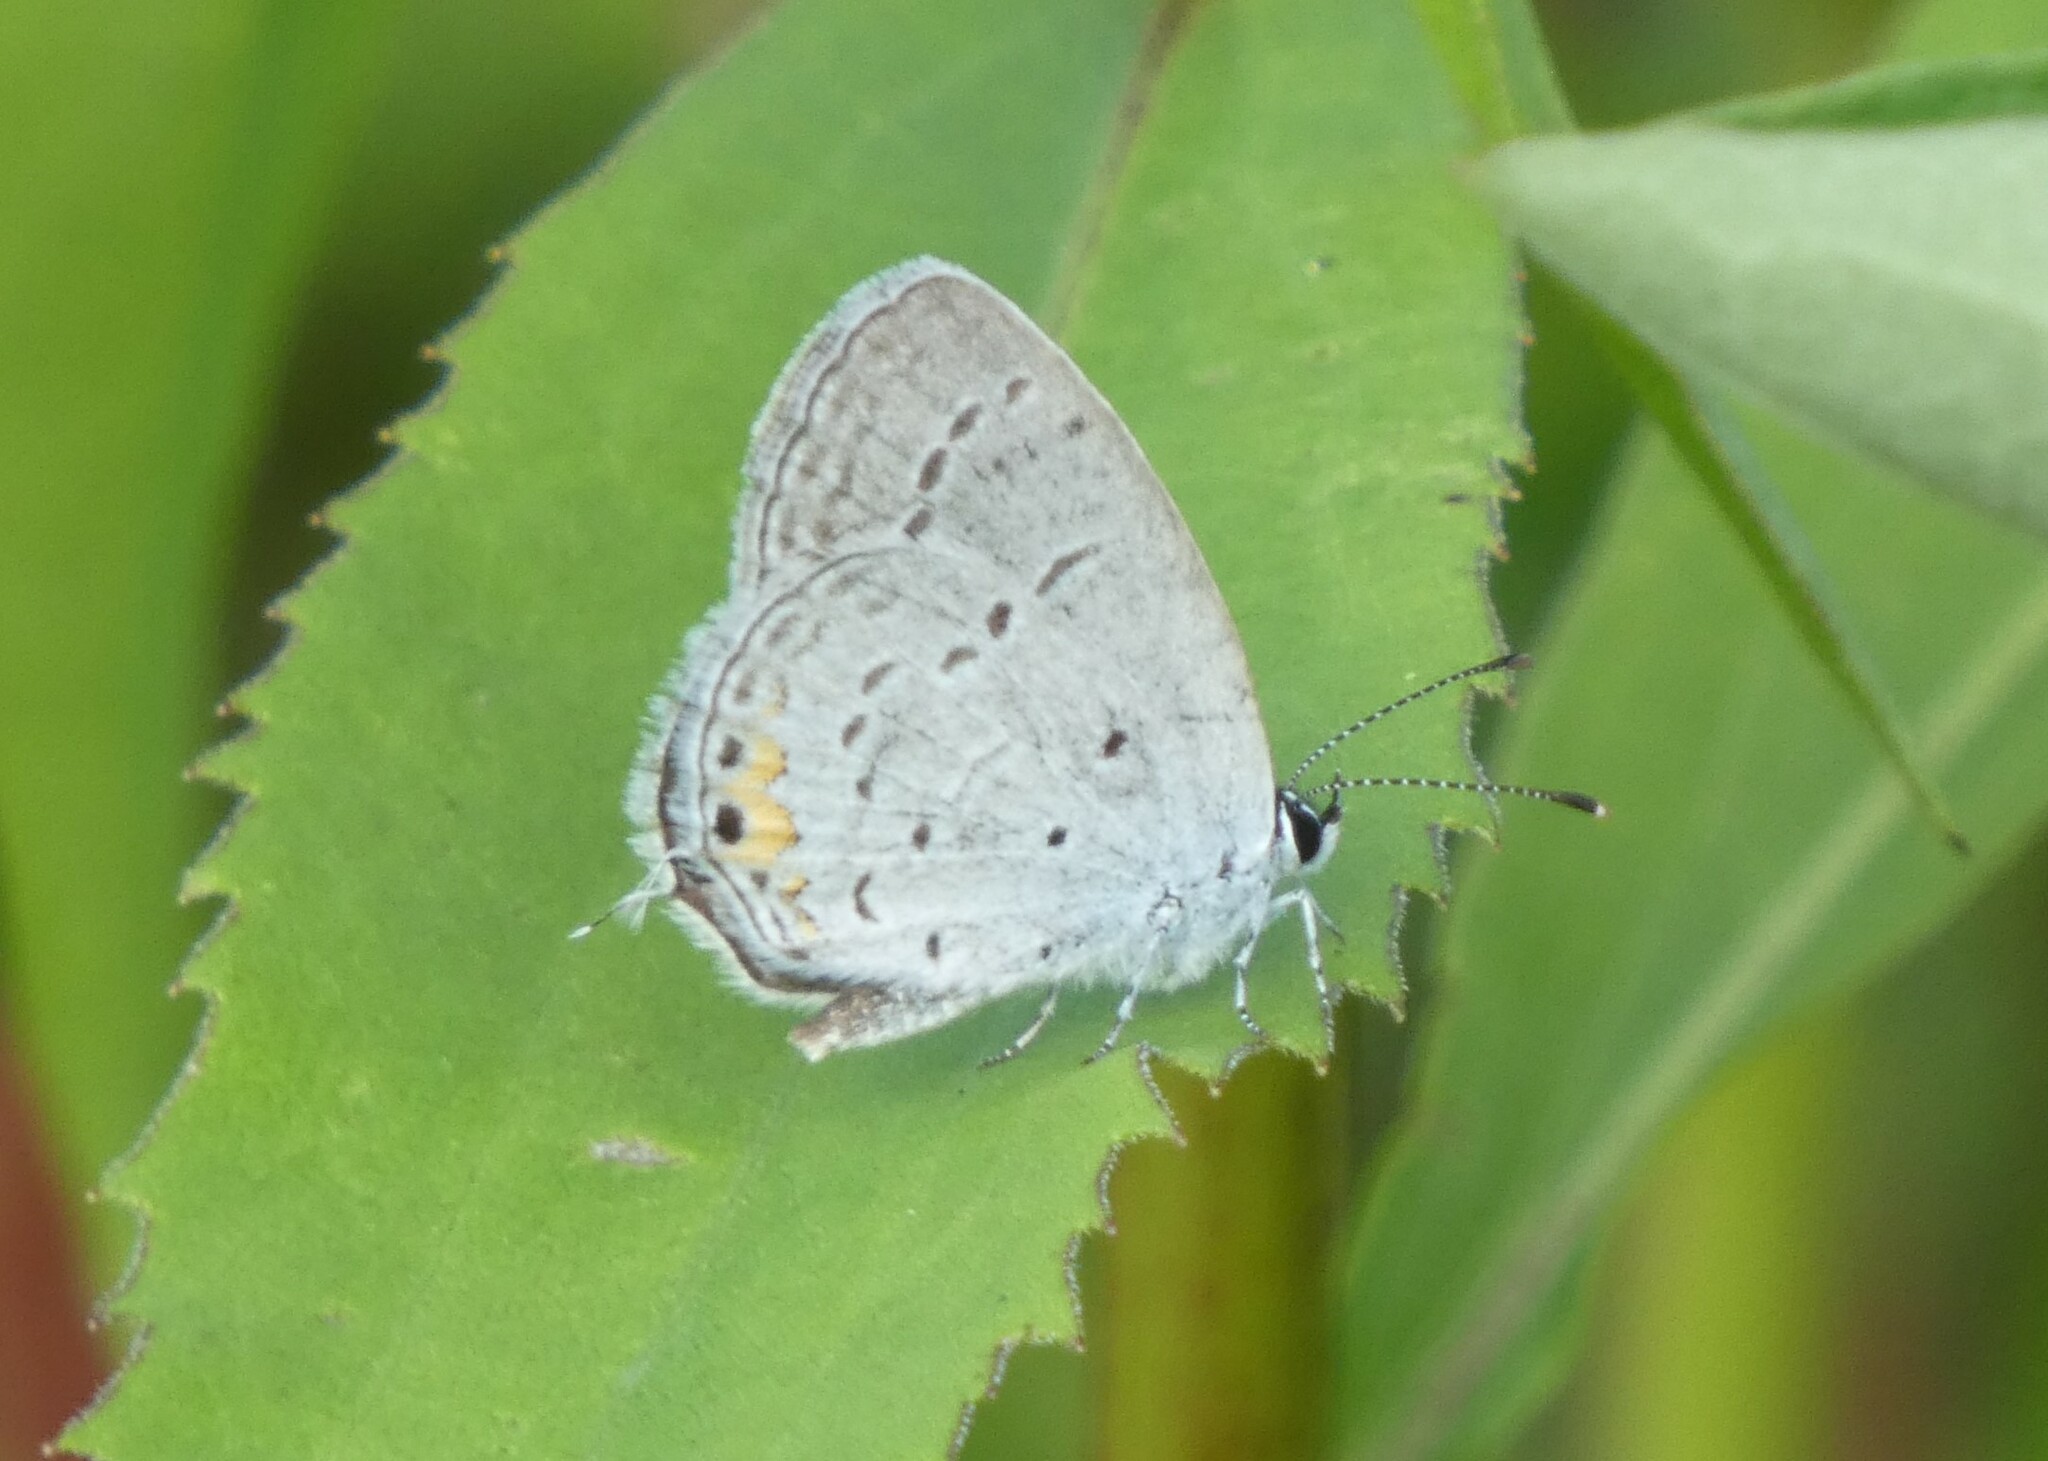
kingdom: Animalia
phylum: Arthropoda
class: Insecta
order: Lepidoptera
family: Lycaenidae
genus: Elkalyce
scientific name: Elkalyce comyntas
